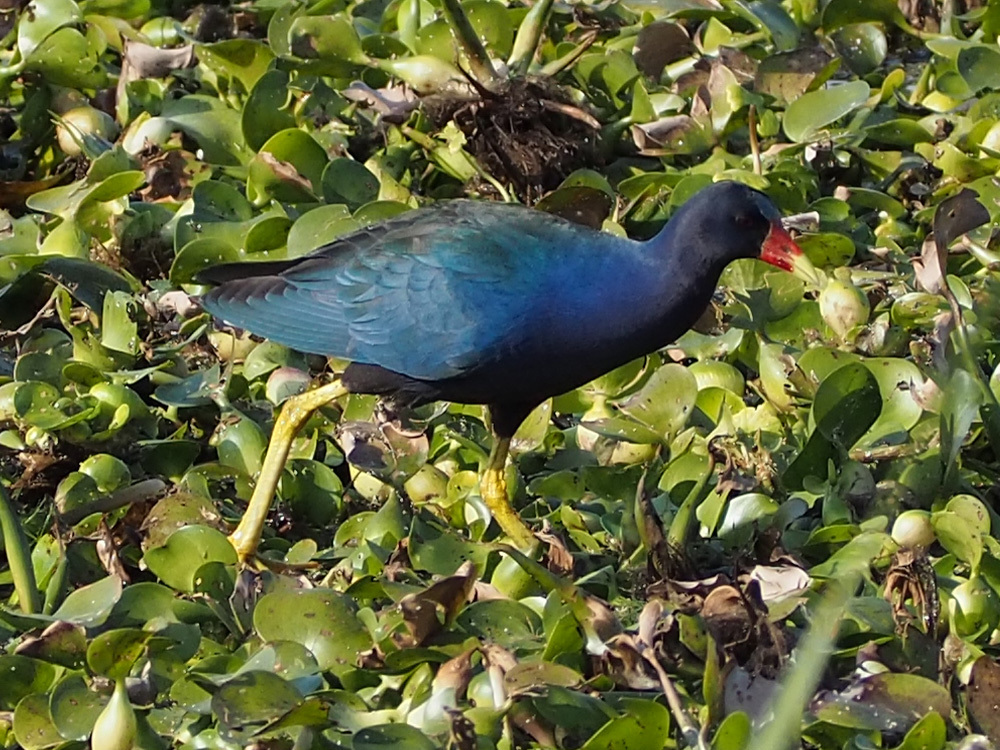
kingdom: Animalia
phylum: Chordata
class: Aves
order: Gruiformes
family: Rallidae
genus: Porphyrio
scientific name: Porphyrio martinica
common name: Purple gallinule
